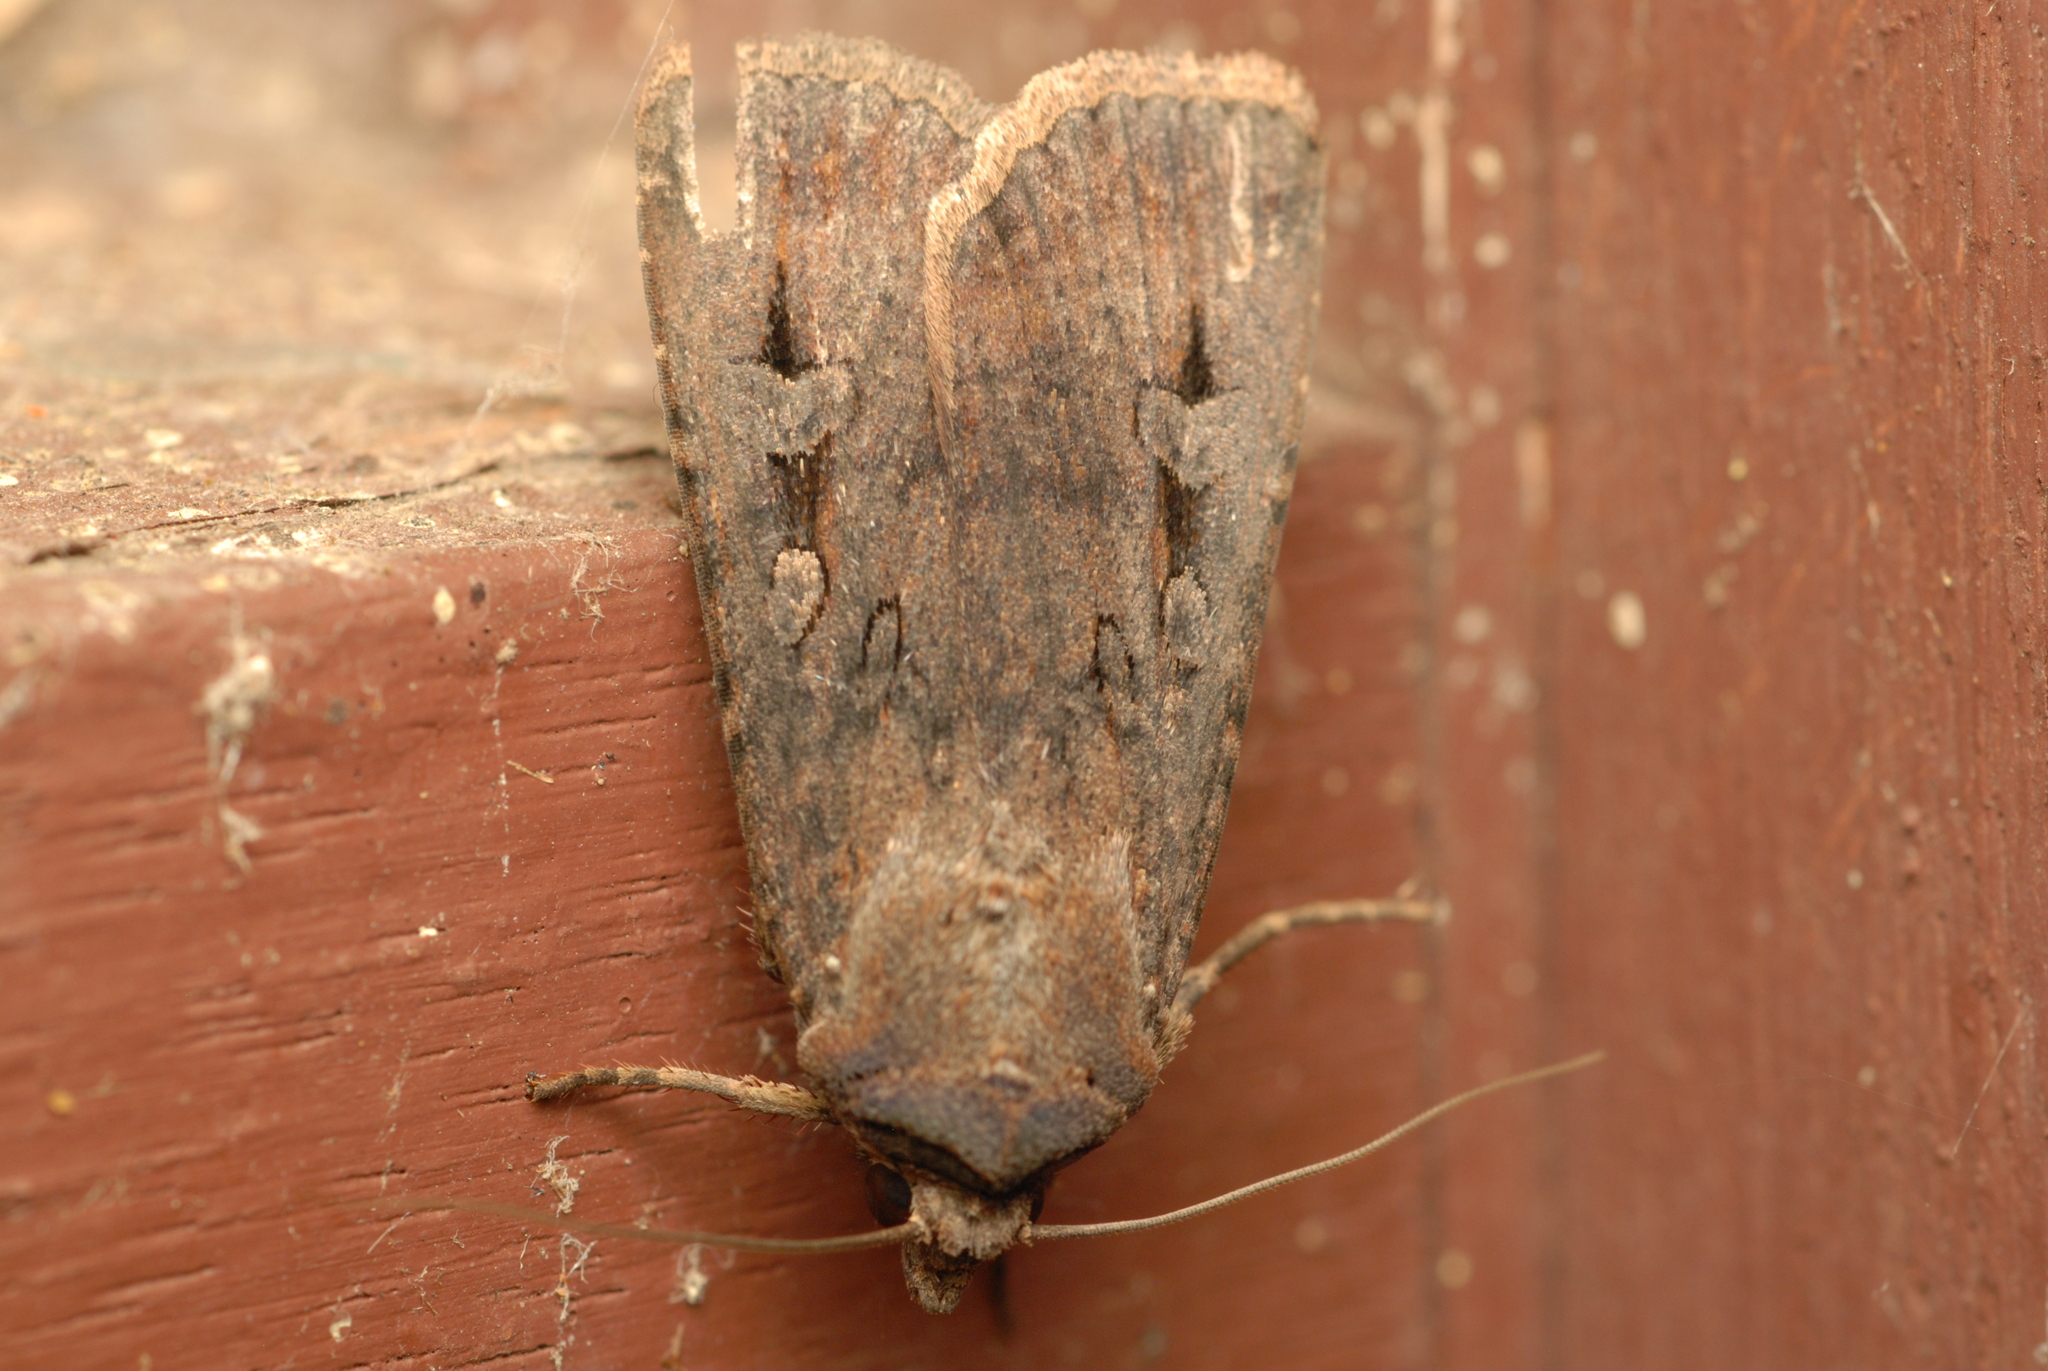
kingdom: Animalia
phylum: Arthropoda
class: Insecta
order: Lepidoptera
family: Noctuidae
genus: Agrotis
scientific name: Agrotis infusa
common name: Bogong moth
